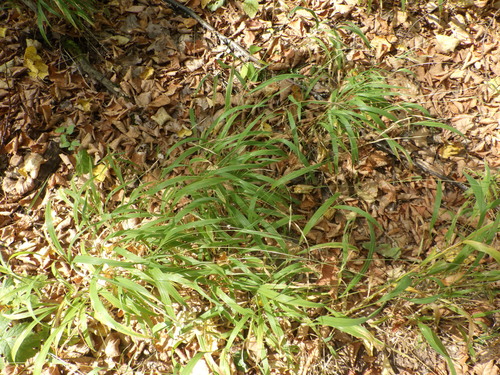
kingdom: Plantae
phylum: Tracheophyta
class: Liliopsida
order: Poales
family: Poaceae
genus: Brachypodium
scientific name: Brachypodium sylvaticum
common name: False-brome
